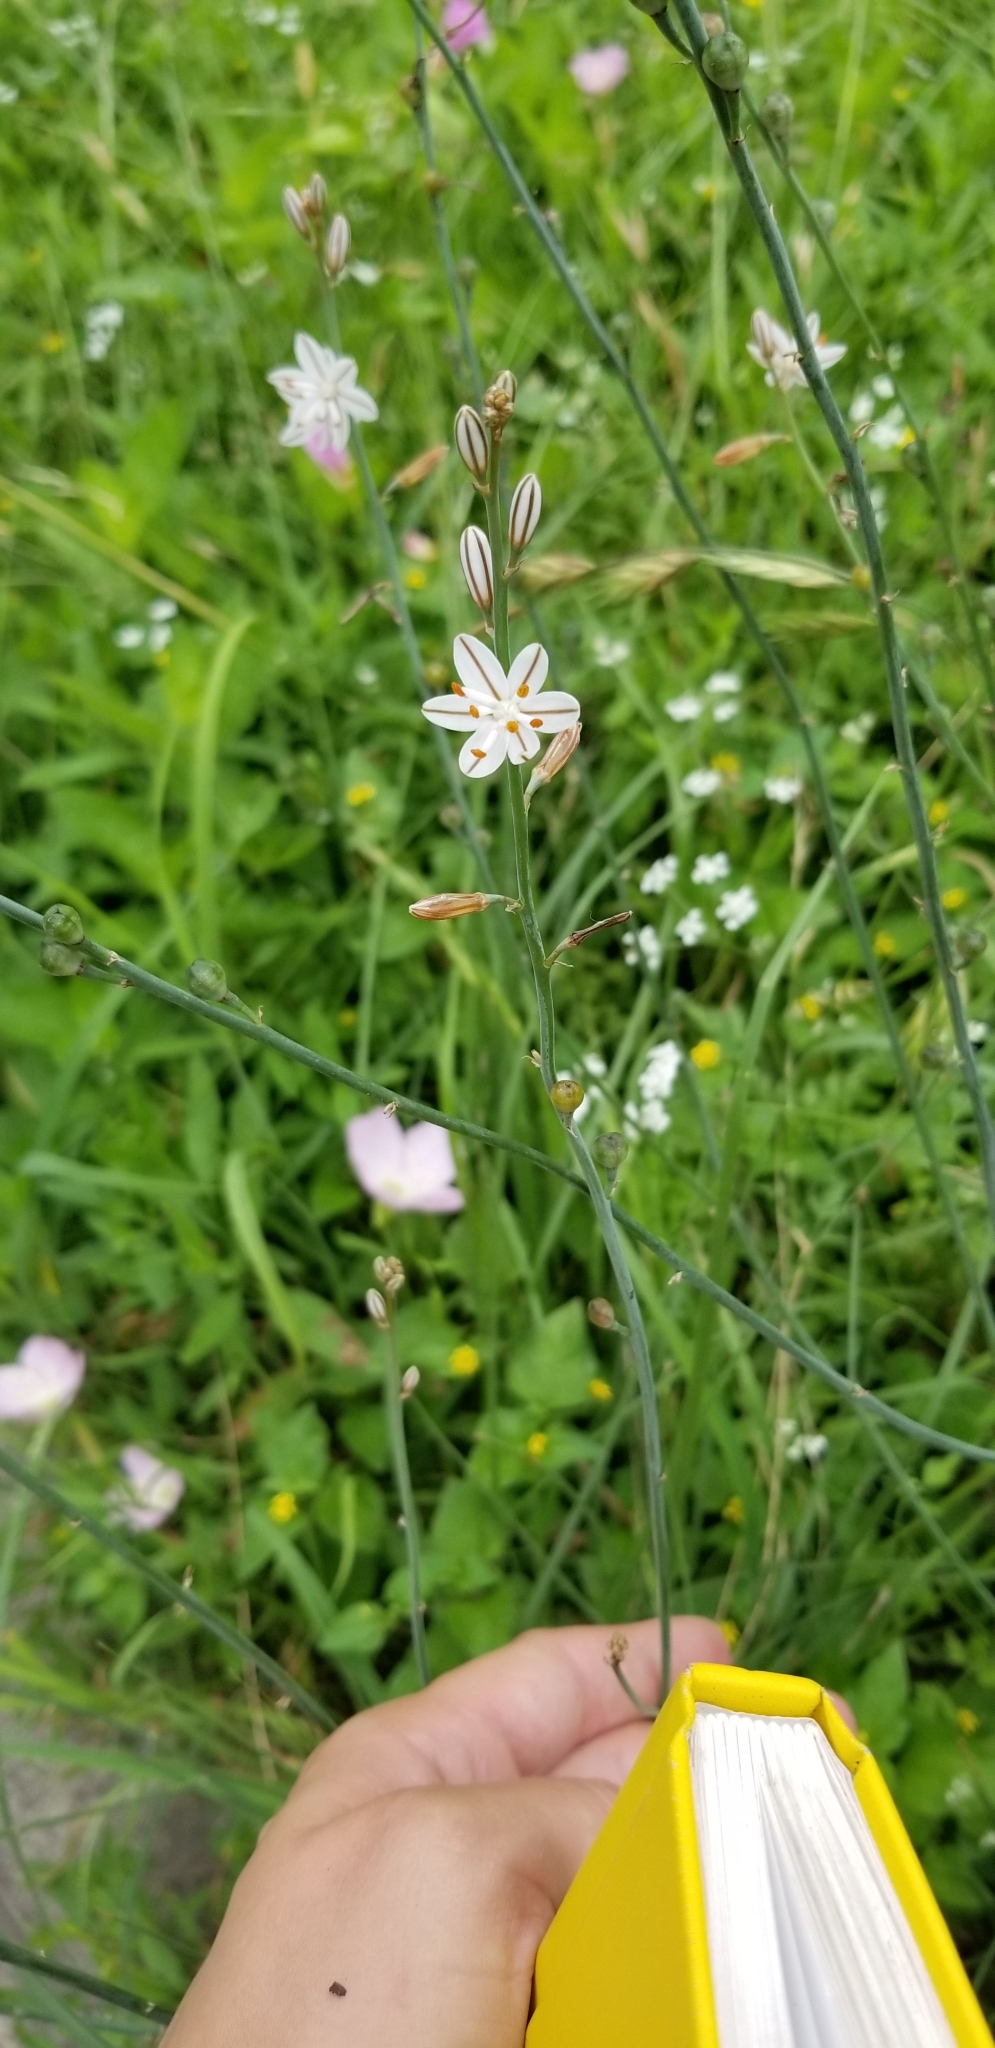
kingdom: Plantae
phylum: Tracheophyta
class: Liliopsida
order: Asparagales
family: Asphodelaceae
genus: Asphodelus
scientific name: Asphodelus fistulosus
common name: Onionweed
